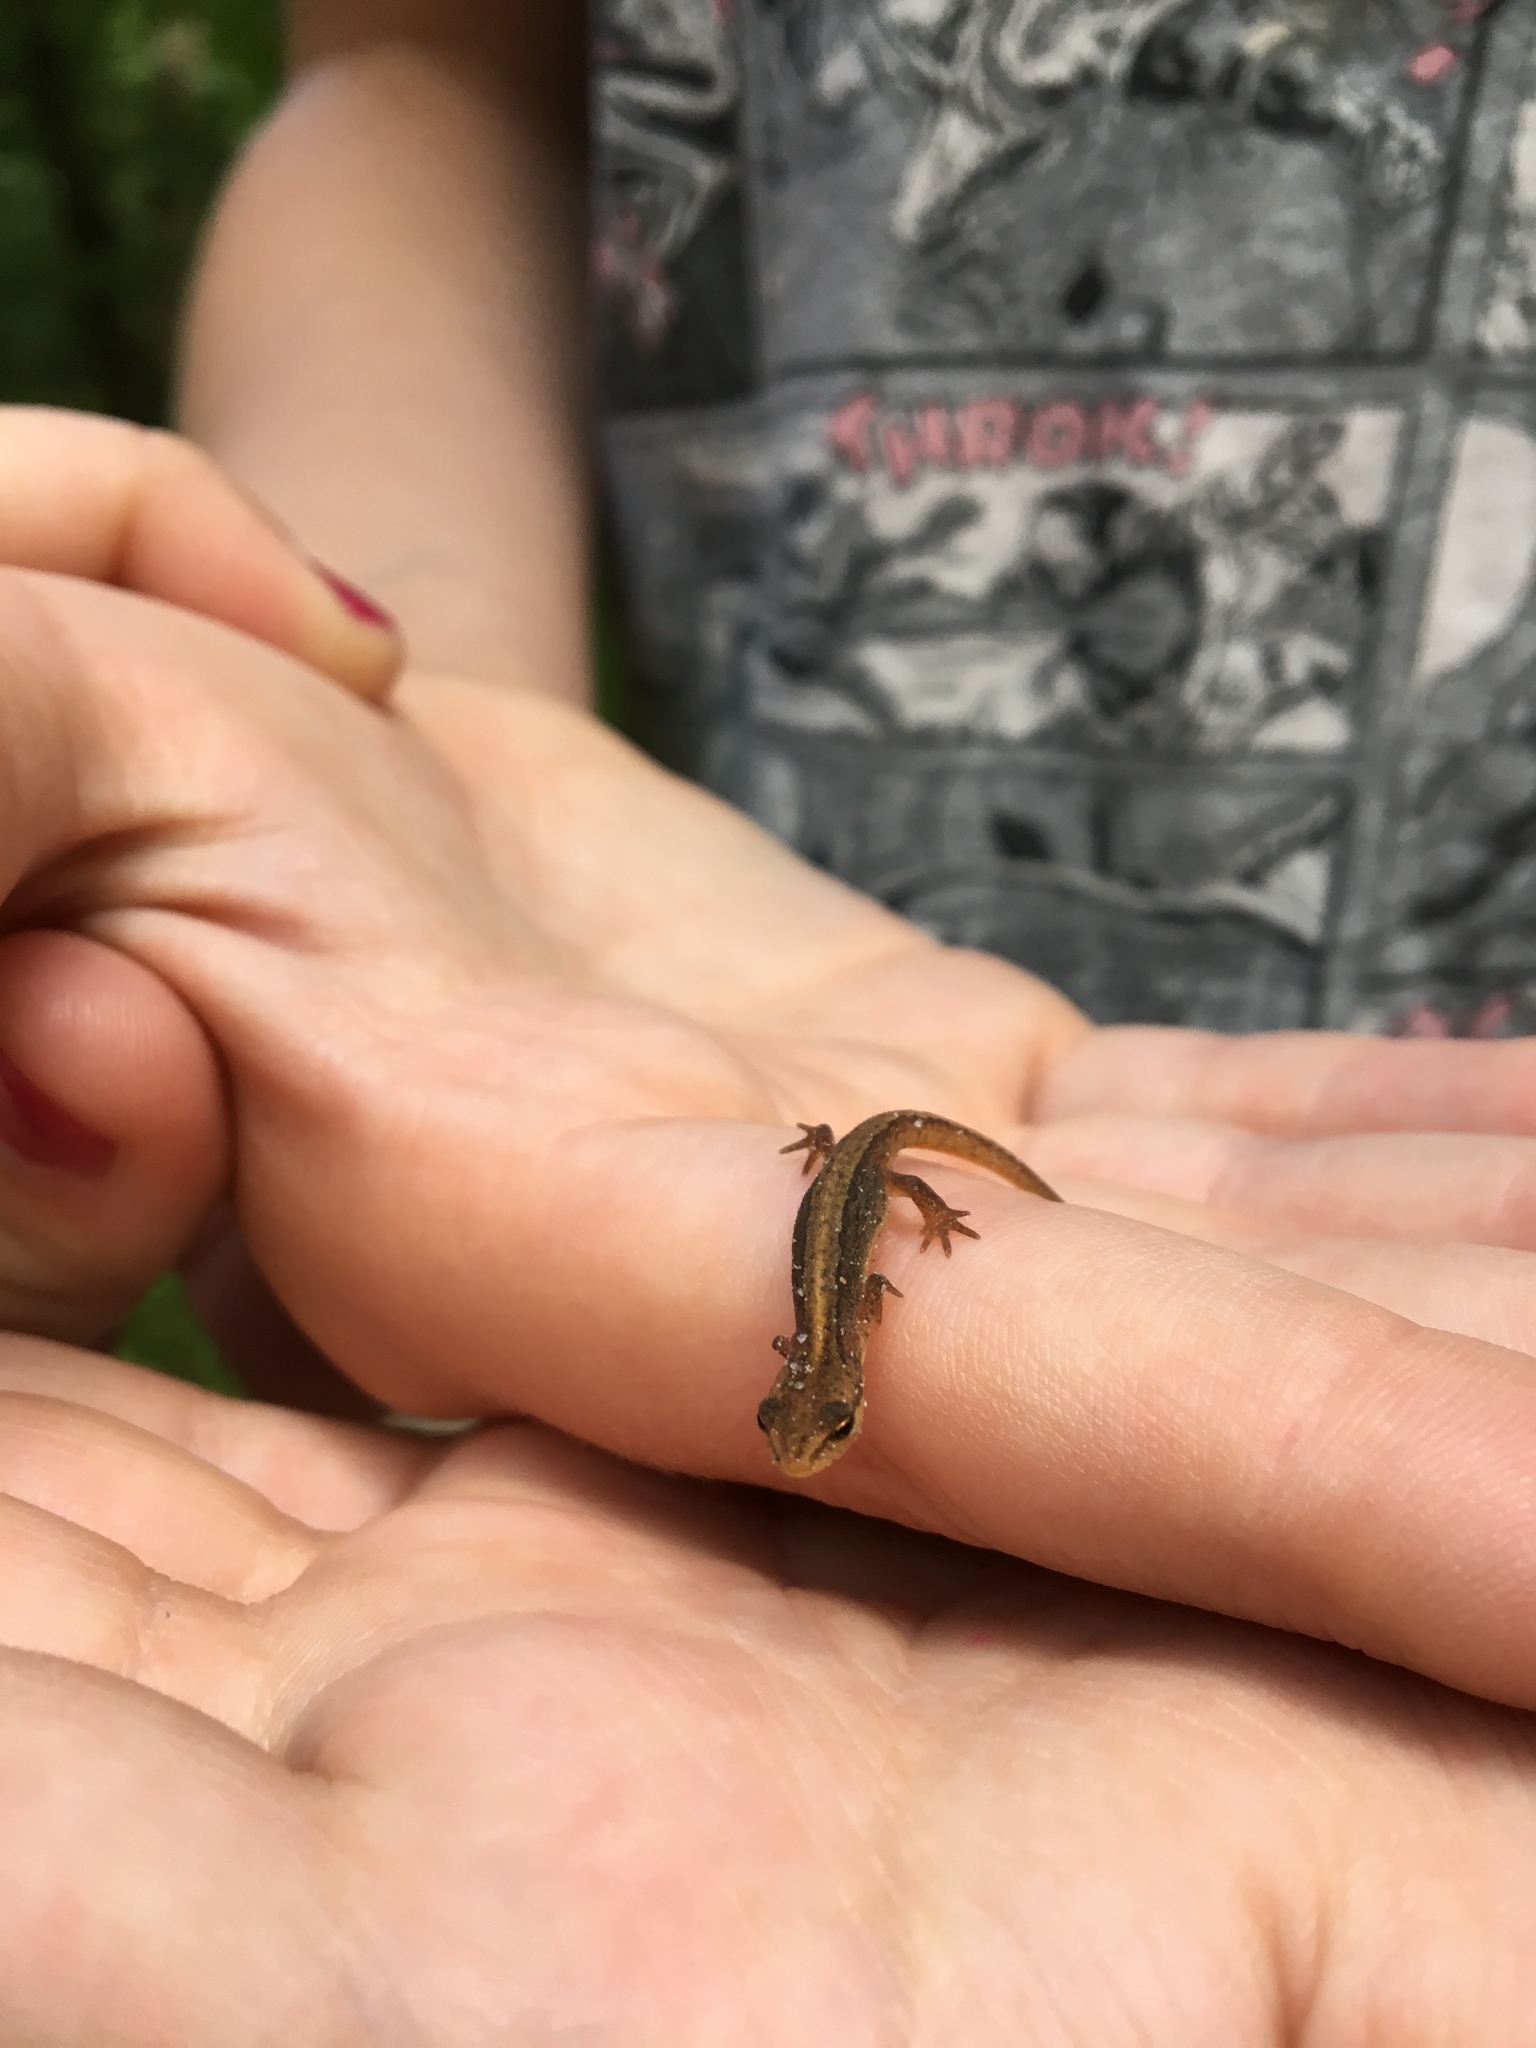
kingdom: Animalia
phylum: Chordata
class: Amphibia
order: Caudata
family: Salamandridae
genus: Lissotriton
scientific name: Lissotriton vulgaris
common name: Smooth newt
